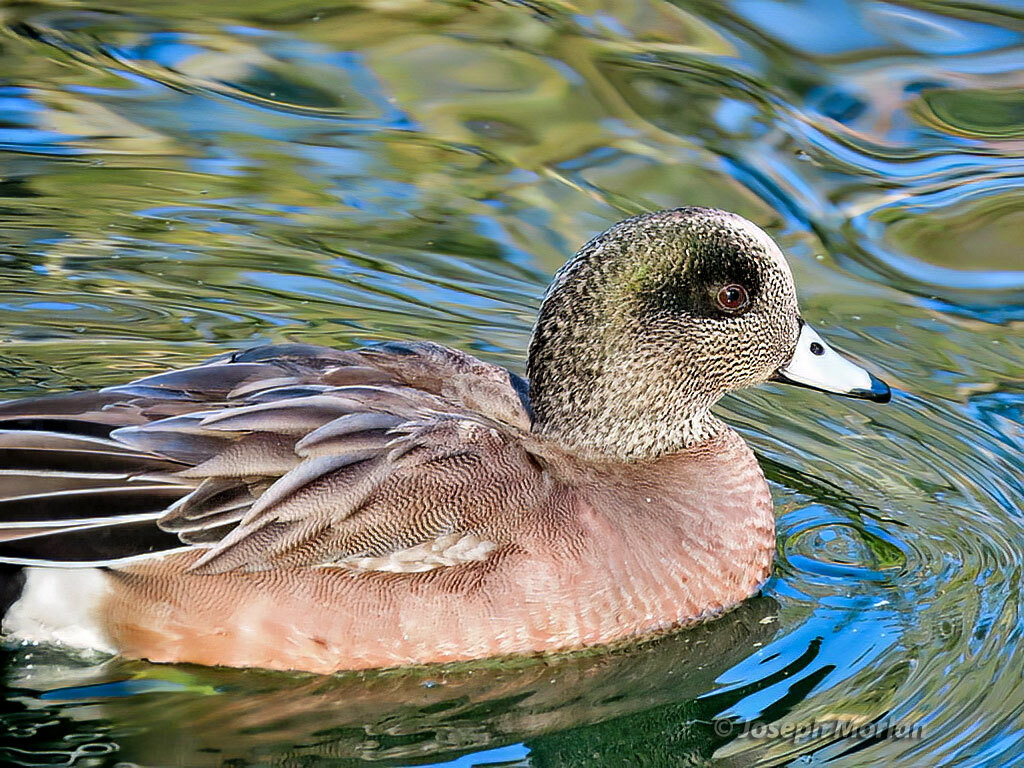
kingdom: Animalia
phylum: Chordata
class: Aves
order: Anseriformes
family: Anatidae
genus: Mareca
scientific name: Mareca americana
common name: American wigeon
